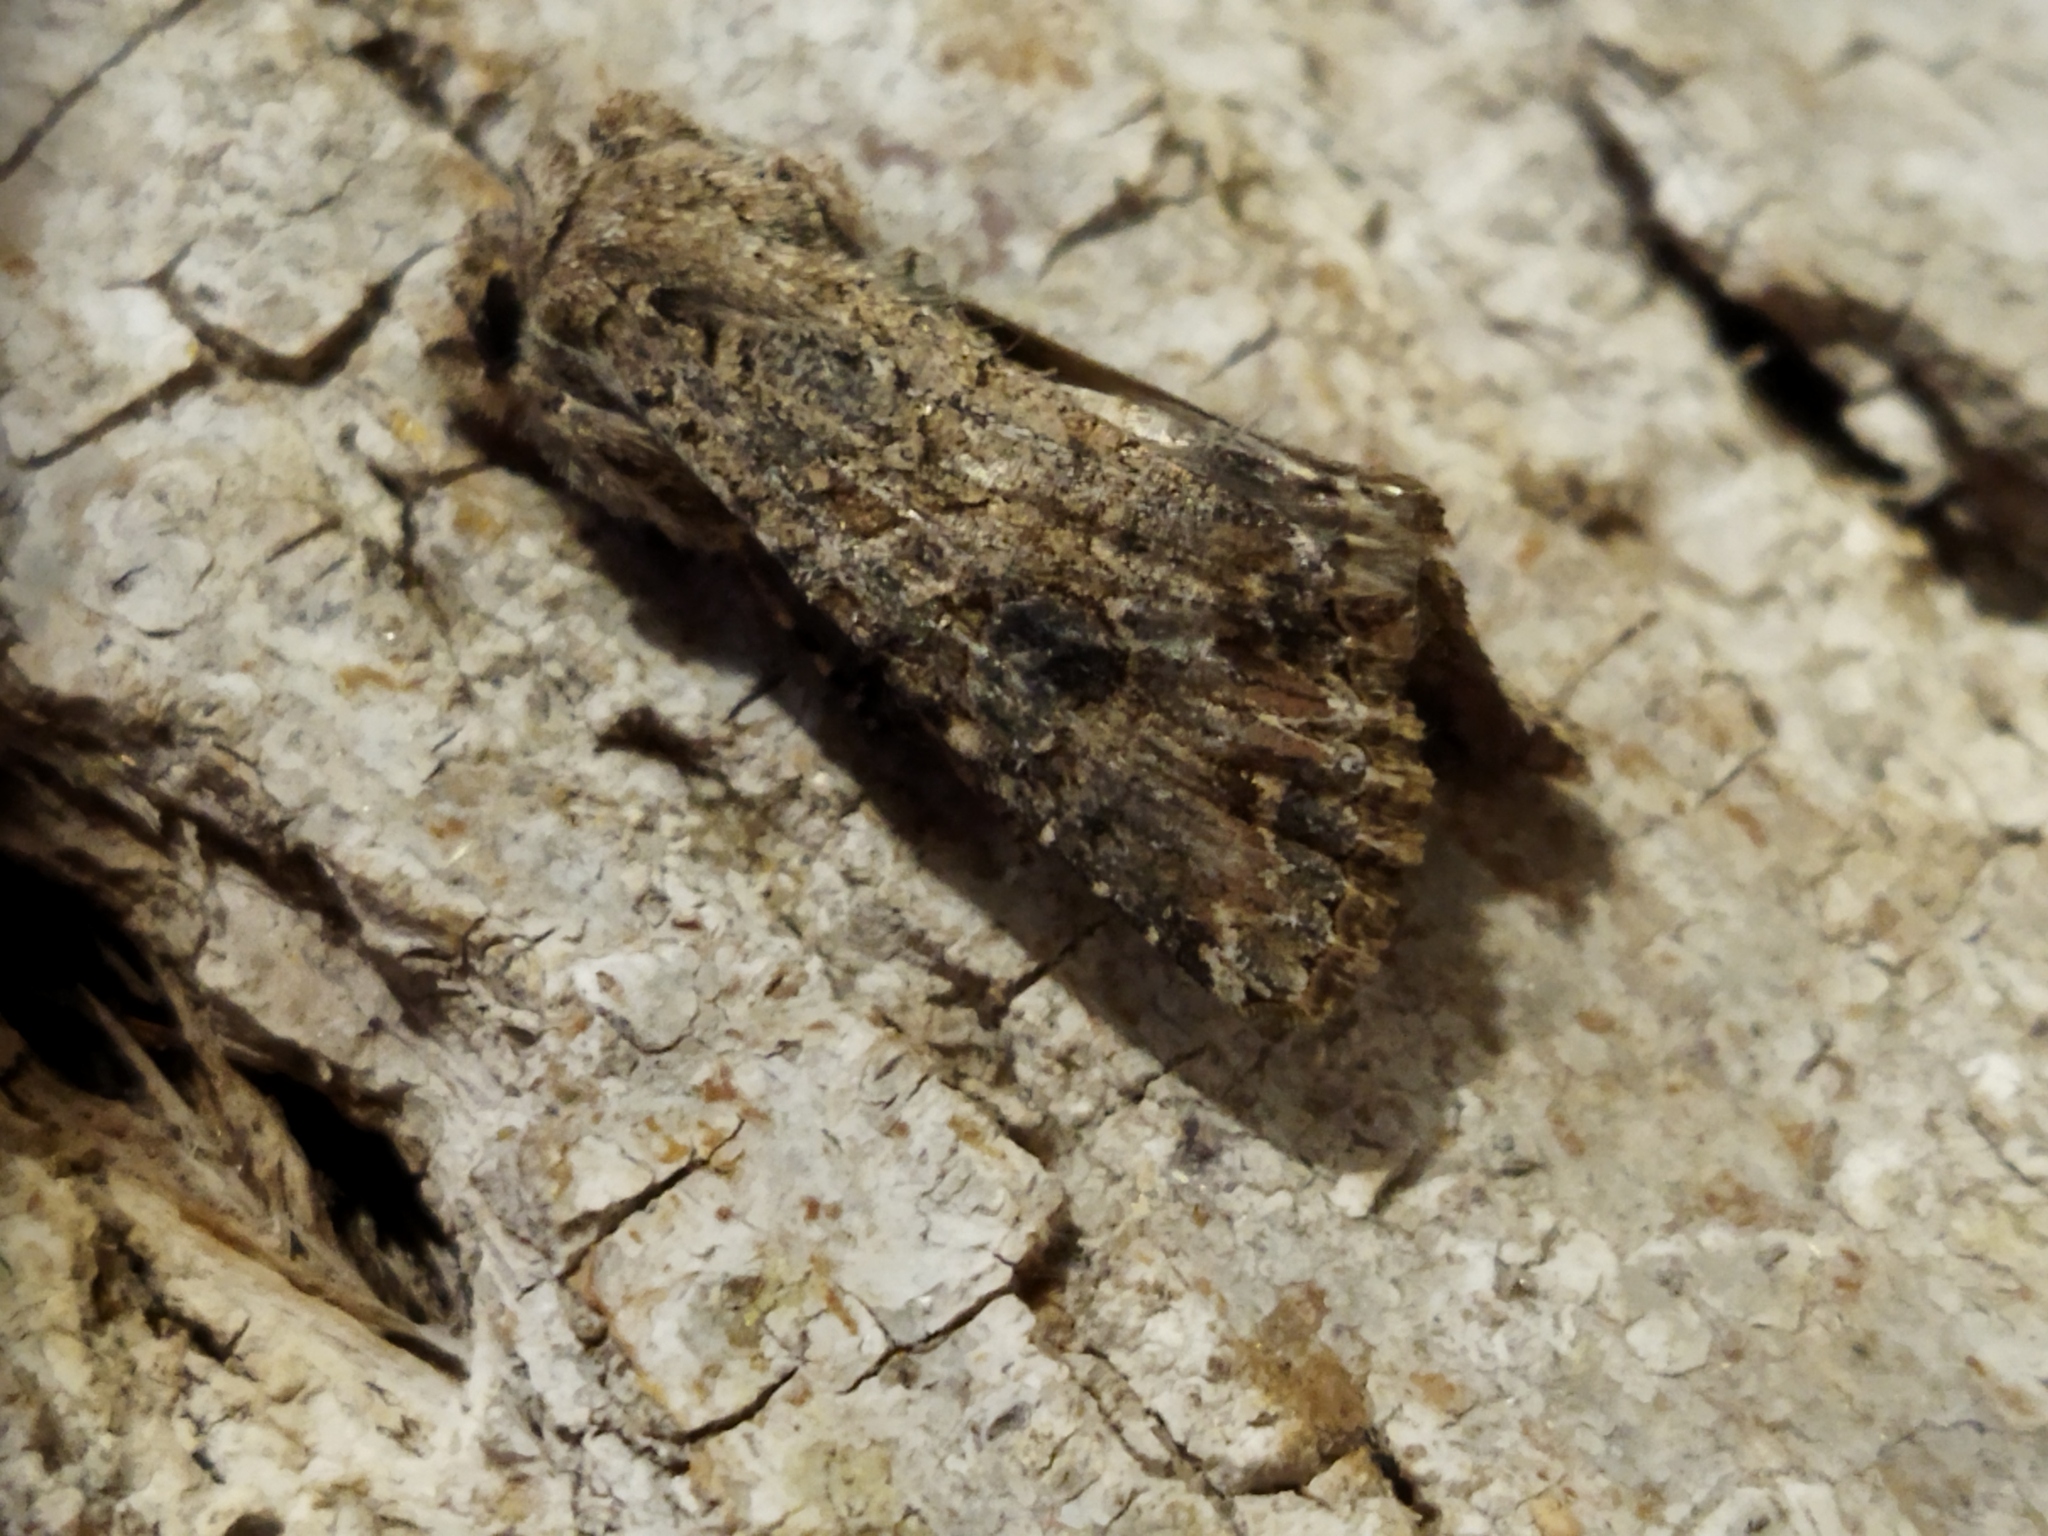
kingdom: Animalia
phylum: Arthropoda
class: Insecta
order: Lepidoptera
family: Noctuidae
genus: Anarta
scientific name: Anarta trifolii
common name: Clover cutworm moth
